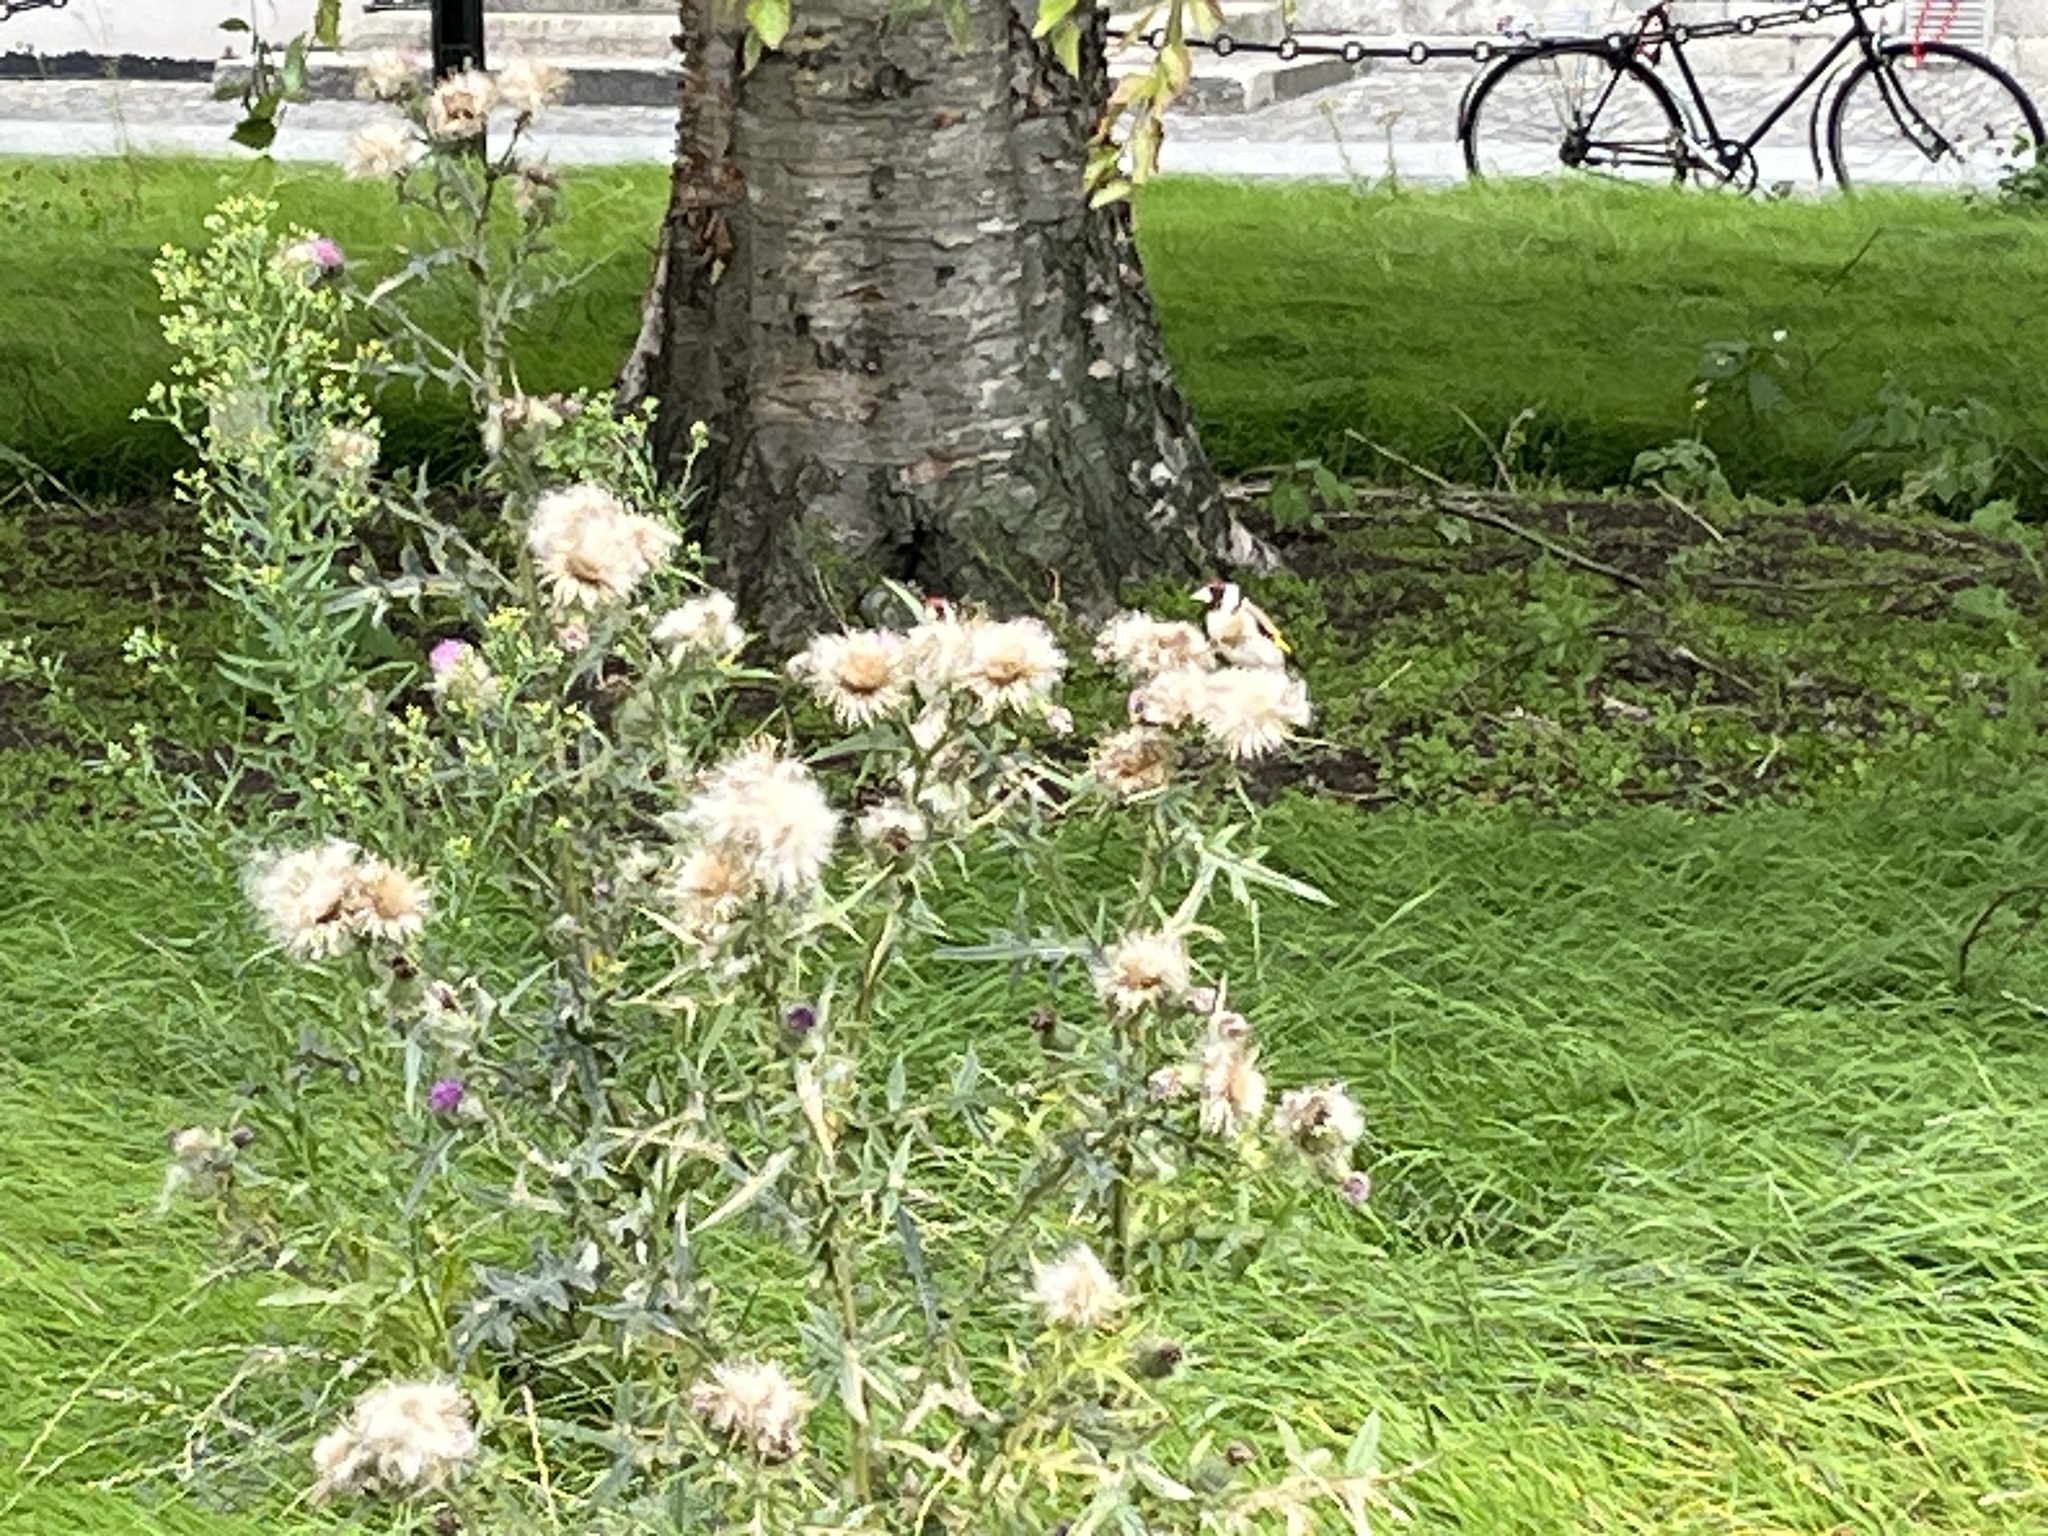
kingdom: Animalia
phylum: Chordata
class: Aves
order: Passeriformes
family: Fringillidae
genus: Carduelis
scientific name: Carduelis carduelis
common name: European goldfinch
